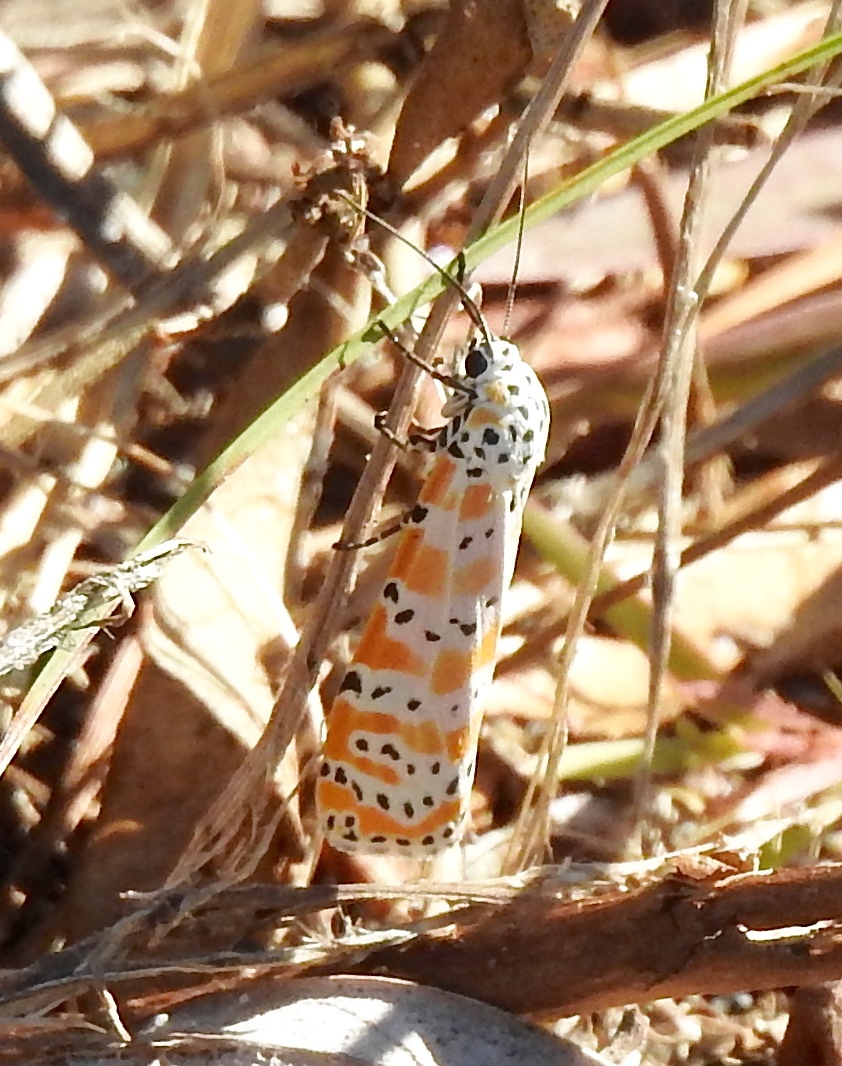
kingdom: Animalia
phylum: Arthropoda
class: Insecta
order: Lepidoptera
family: Erebidae
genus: Utetheisa
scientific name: Utetheisa ornatrix
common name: Beautiful utetheisa
